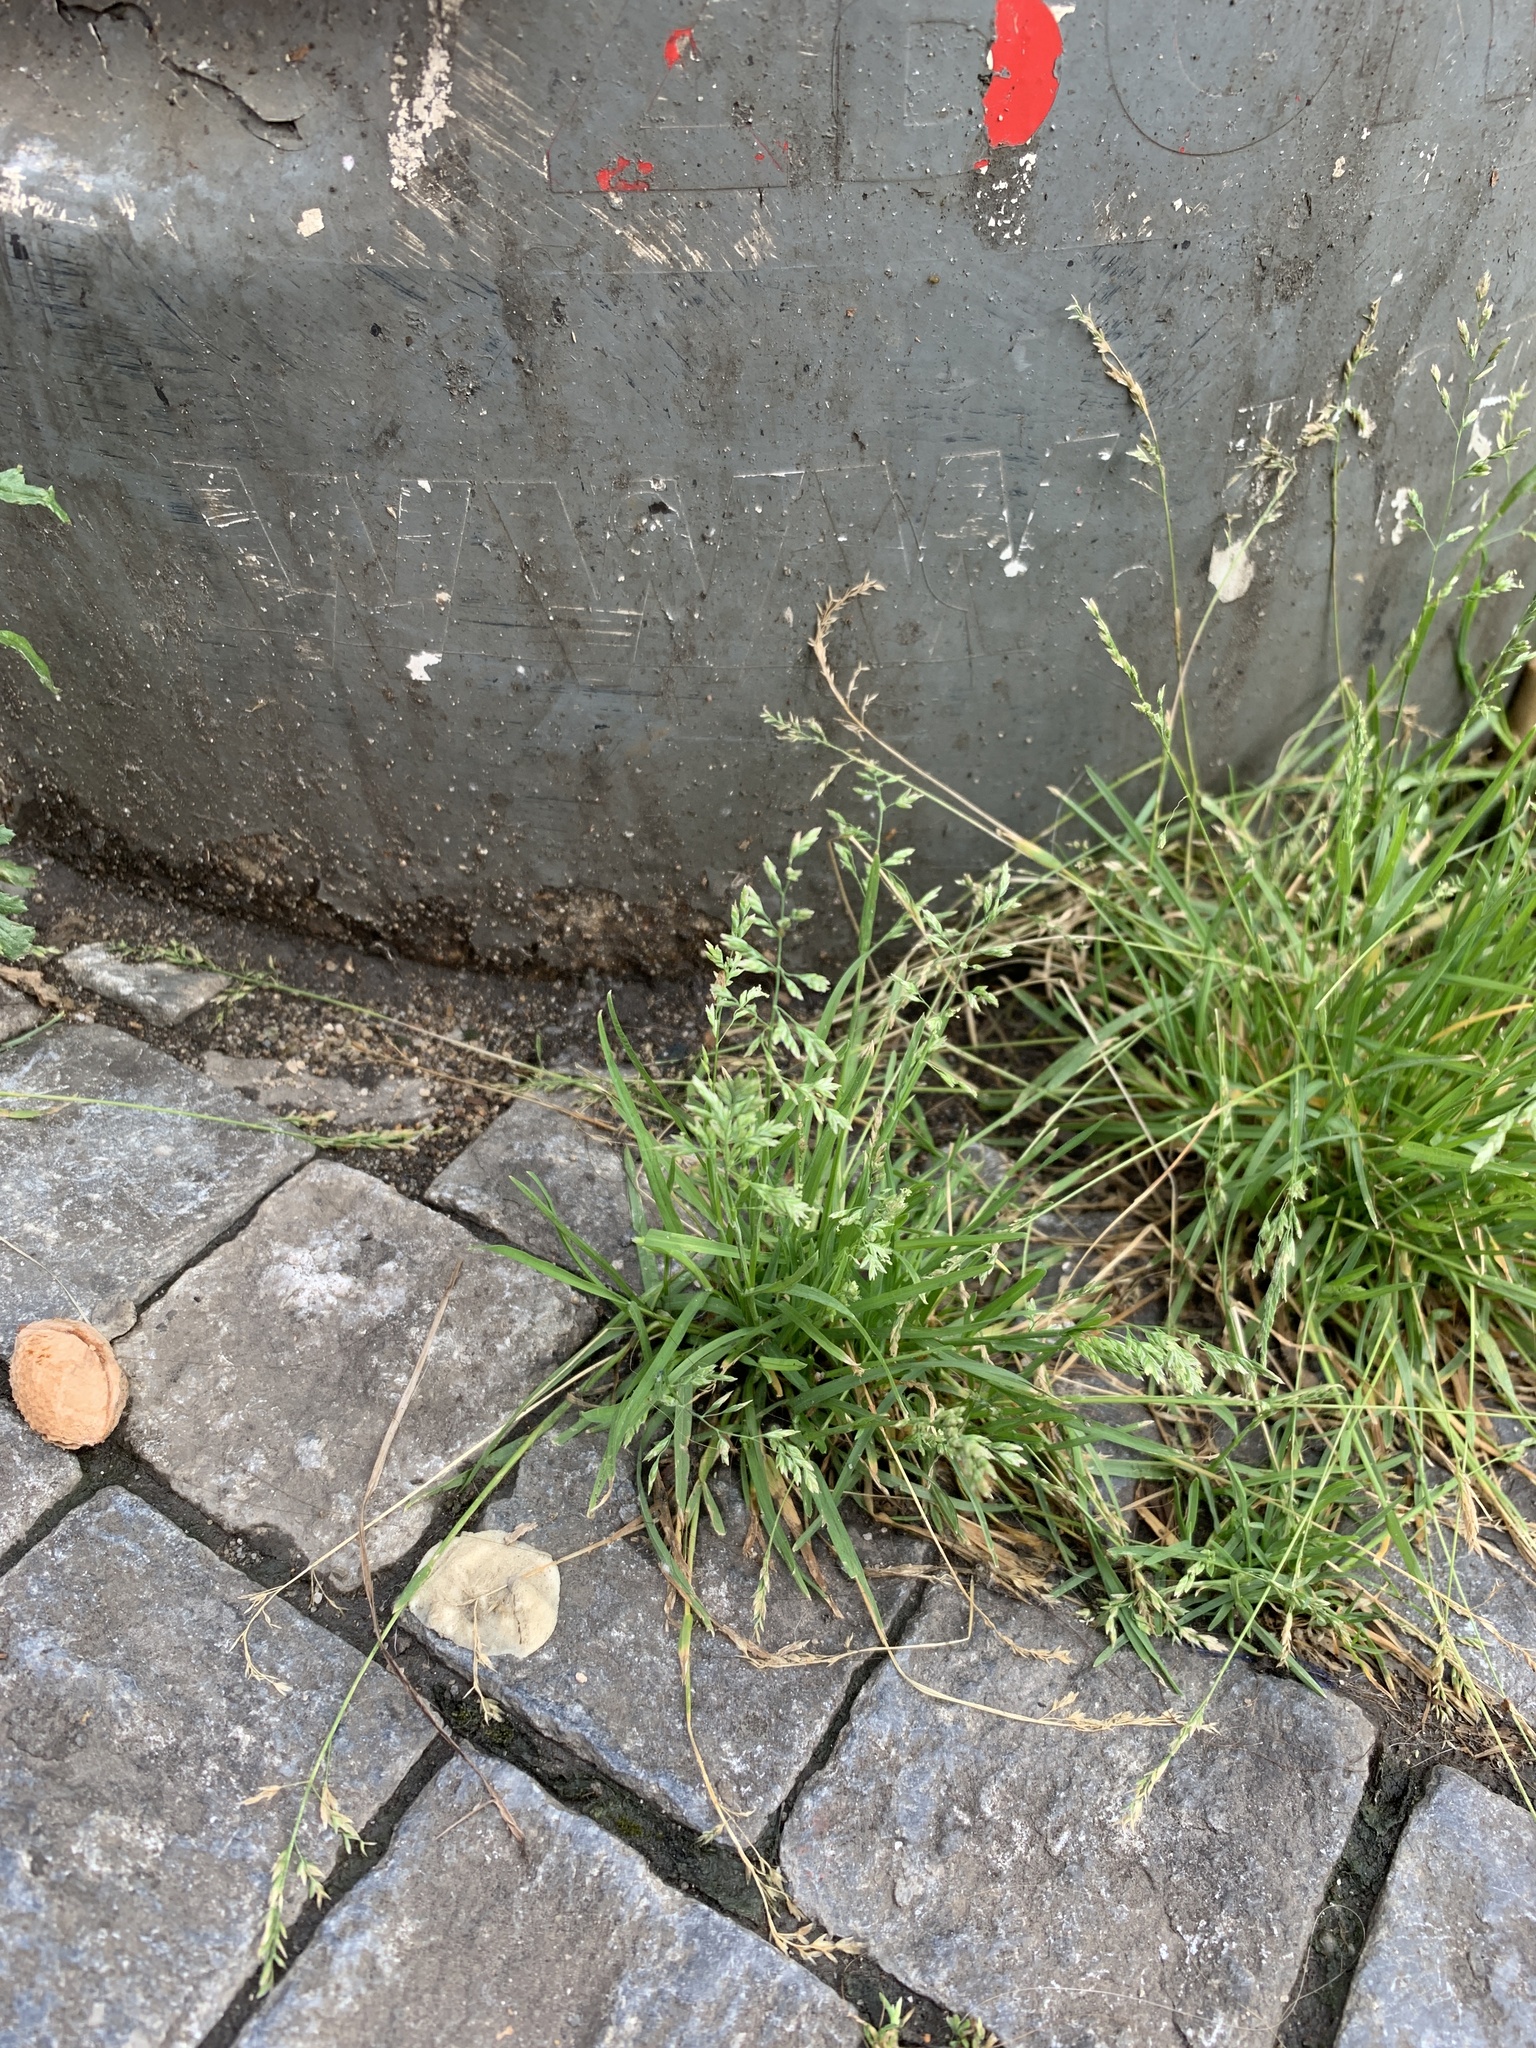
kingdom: Plantae
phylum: Tracheophyta
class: Liliopsida
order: Poales
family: Poaceae
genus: Poa
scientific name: Poa annua
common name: Annual bluegrass
